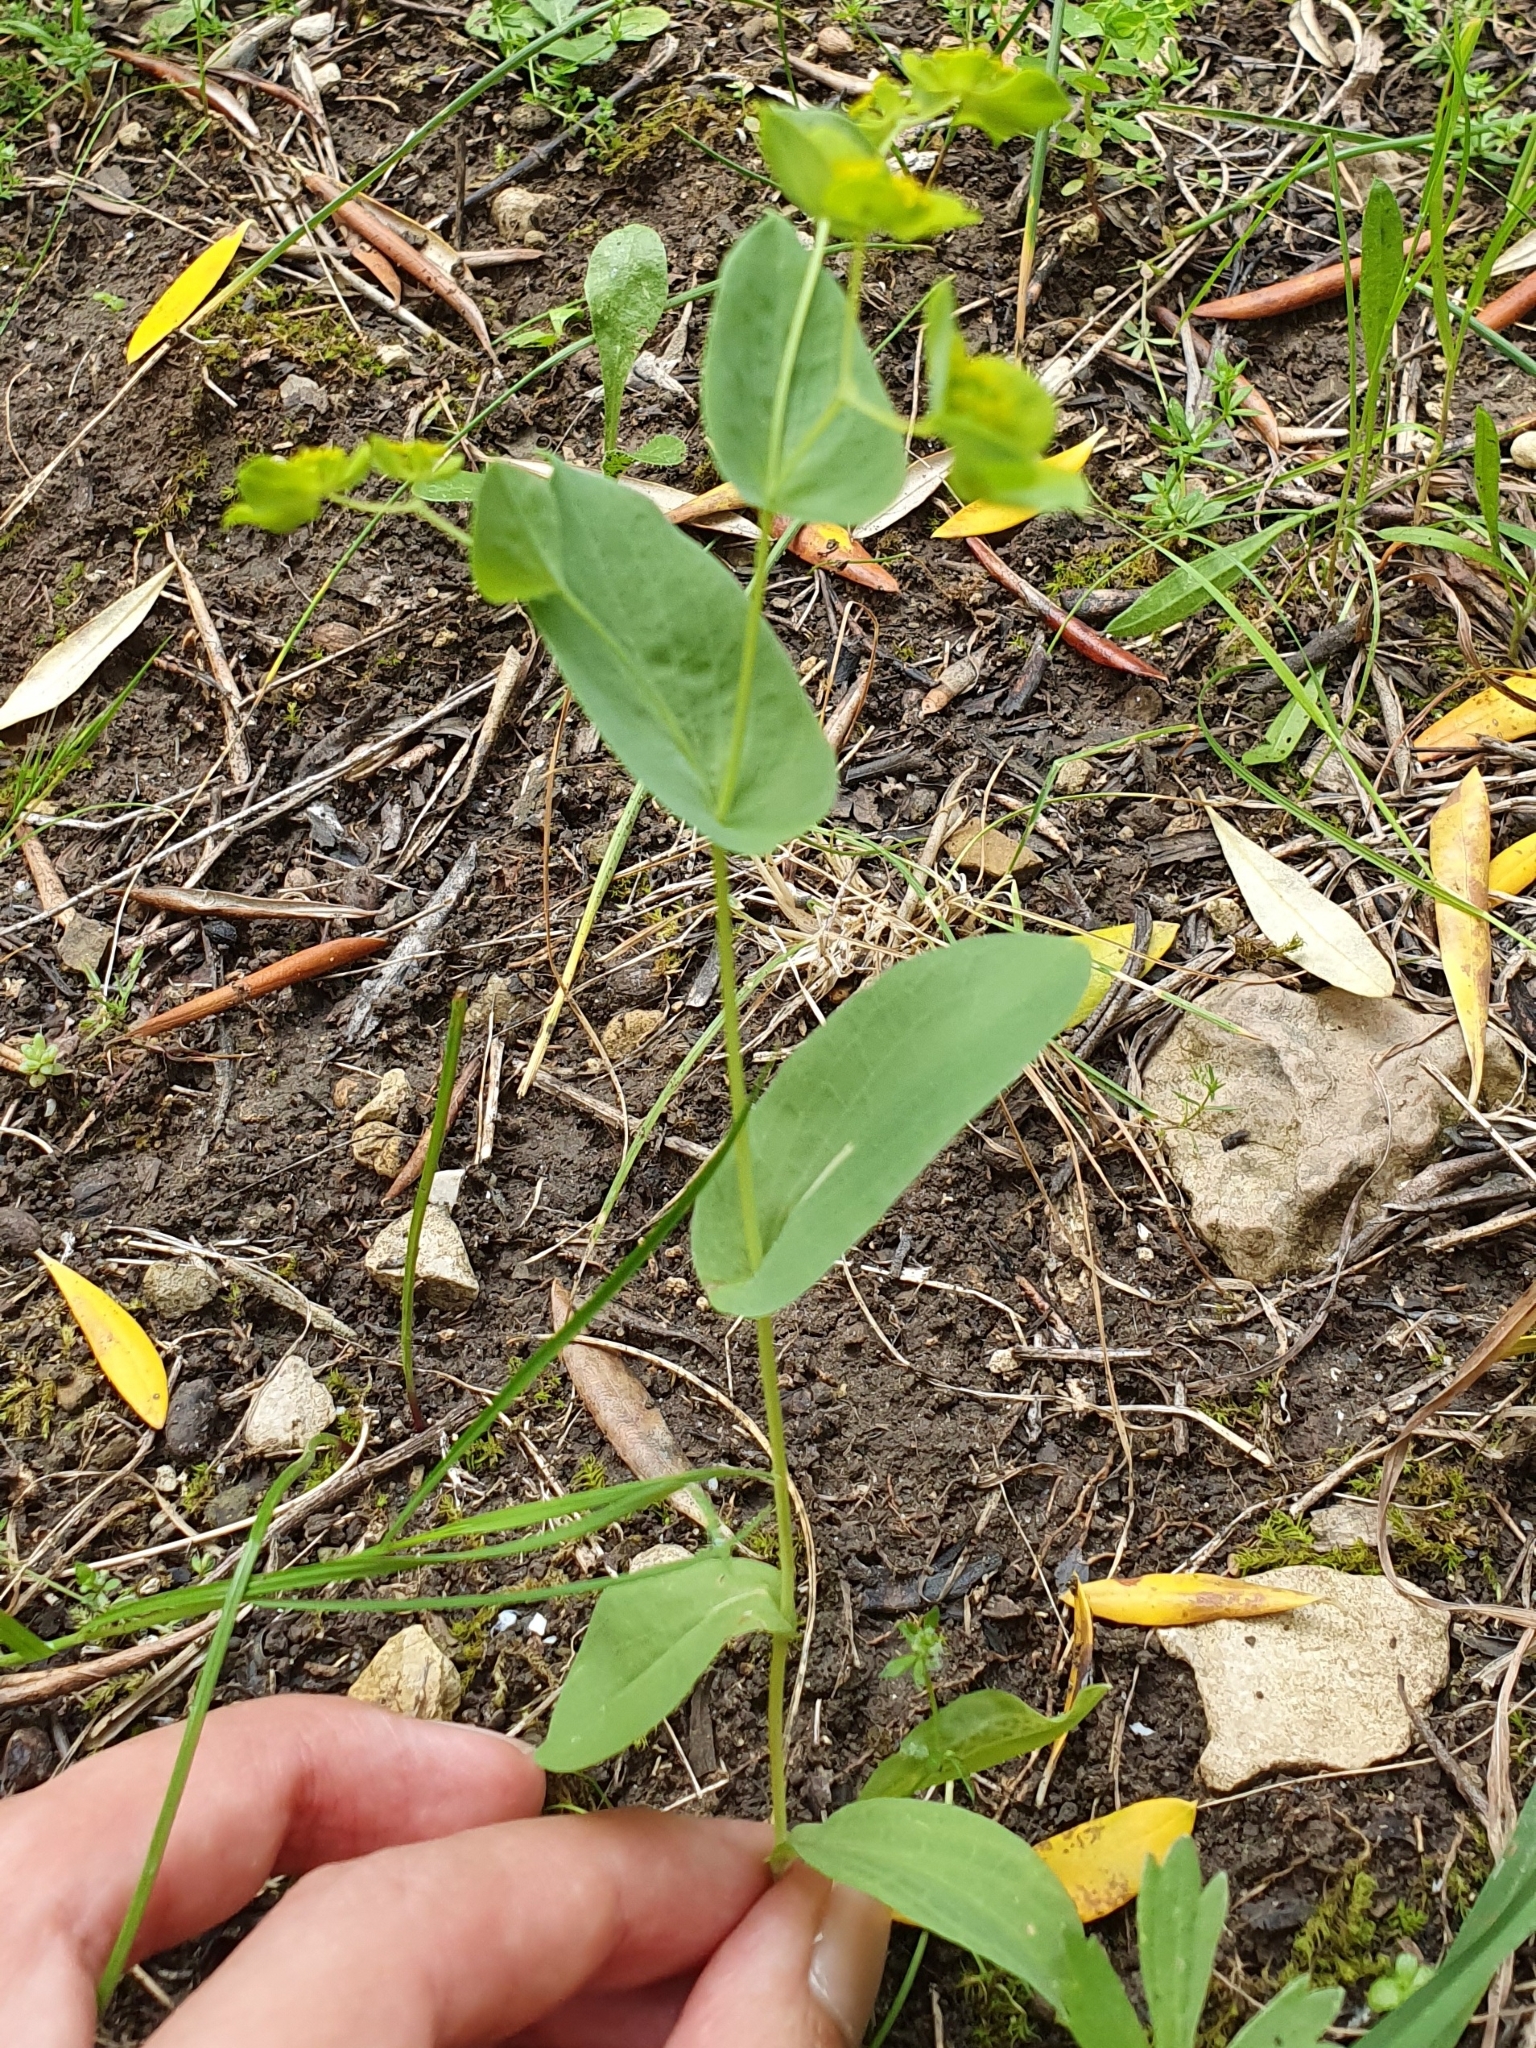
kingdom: Plantae
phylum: Tracheophyta
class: Magnoliopsida
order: Apiales
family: Apiaceae
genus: Bupleurum
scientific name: Bupleurum subovatum
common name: False thorow-wax
